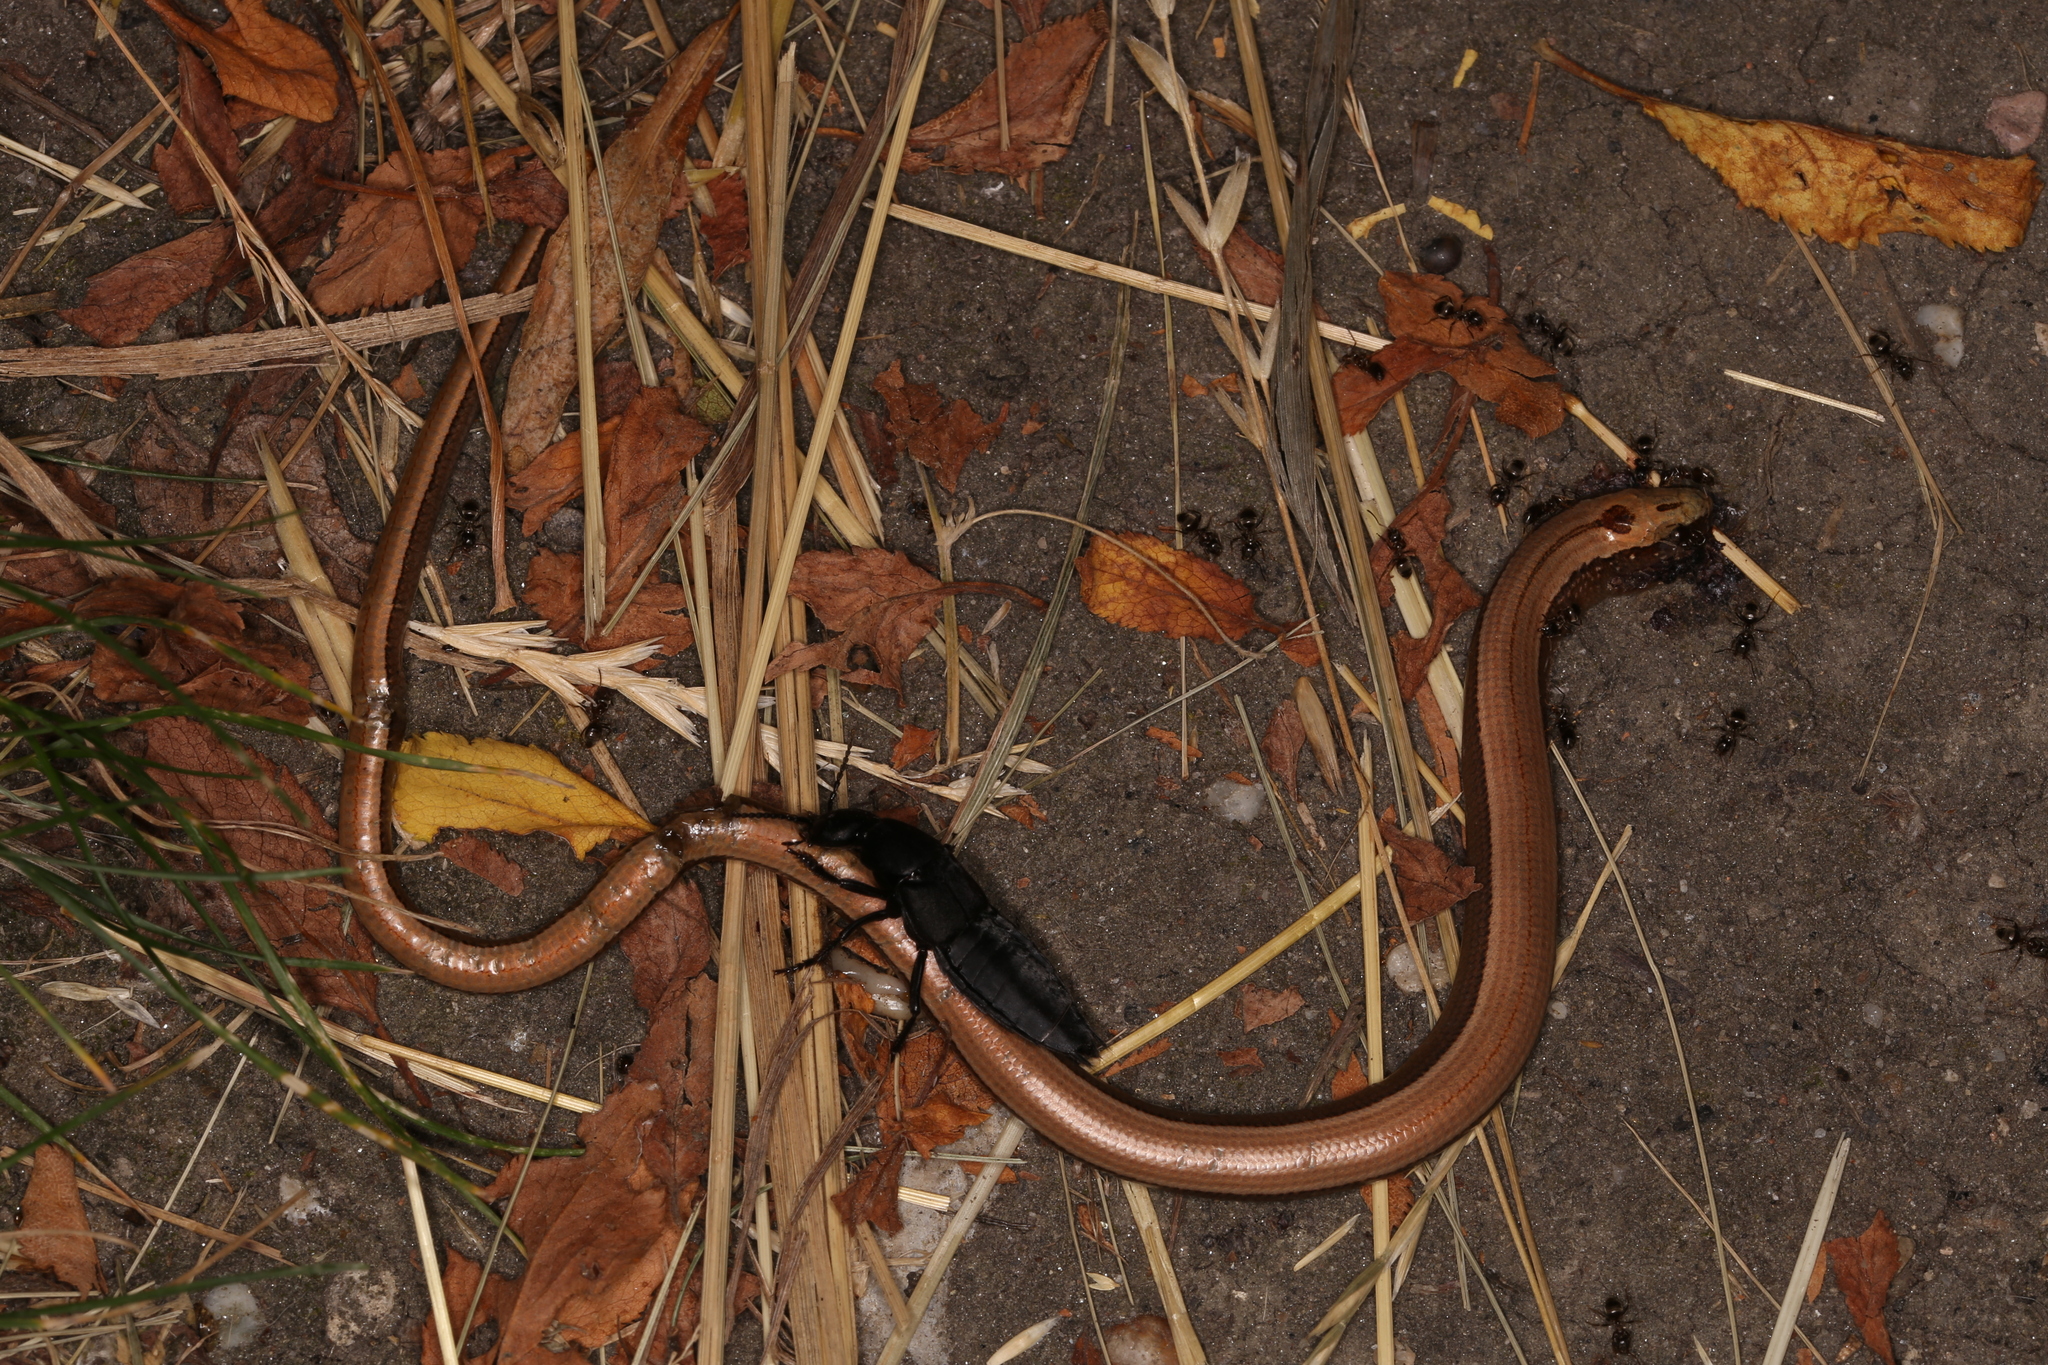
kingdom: Animalia
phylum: Chordata
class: Squamata
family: Anguidae
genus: Anguis
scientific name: Anguis fragilis
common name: Slow worm
